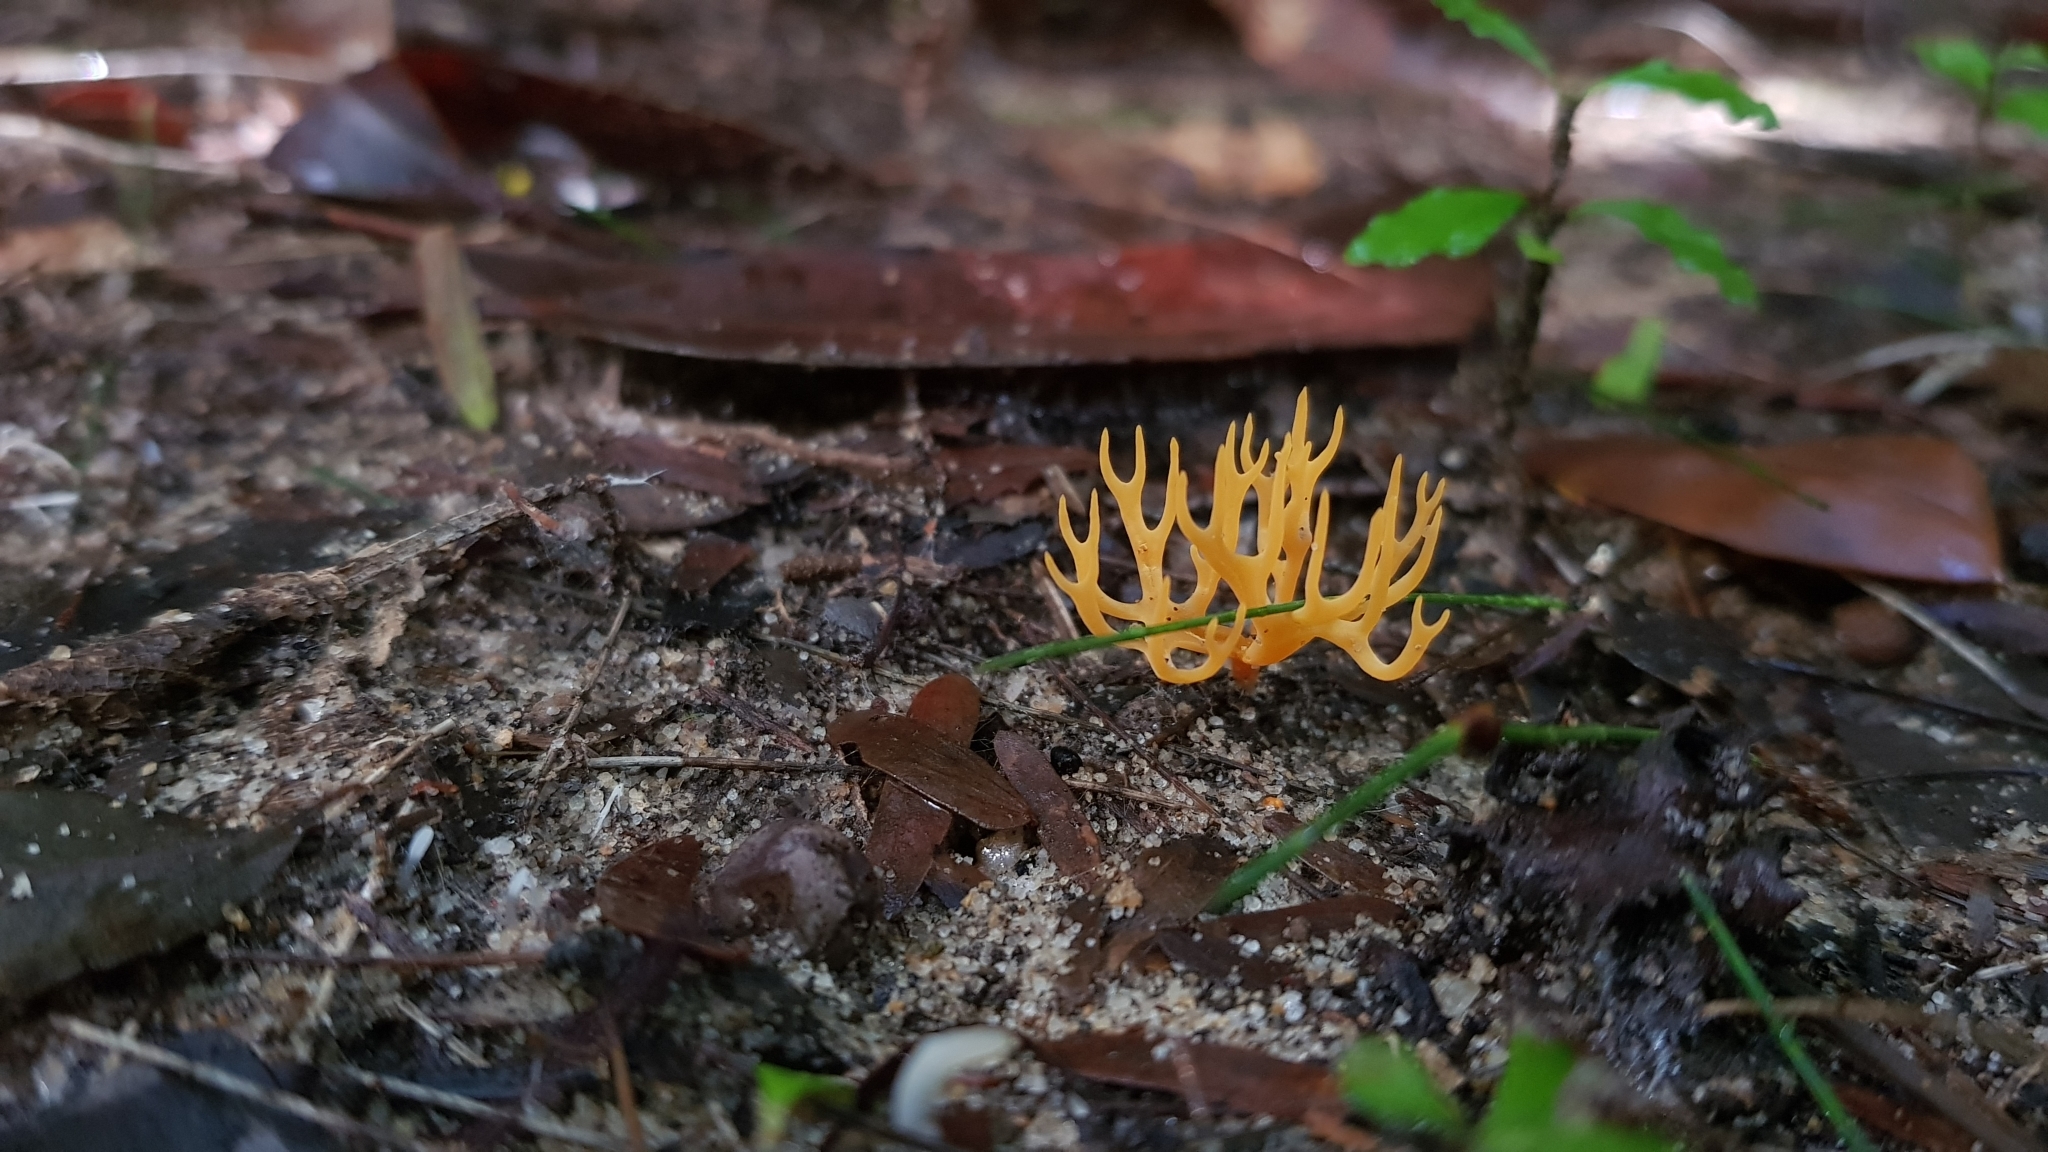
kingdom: Fungi
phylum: Basidiomycota
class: Agaricomycetes
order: Agaricales
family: Clavariaceae
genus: Ramariopsis
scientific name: Ramariopsis crocea
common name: Orange coral
